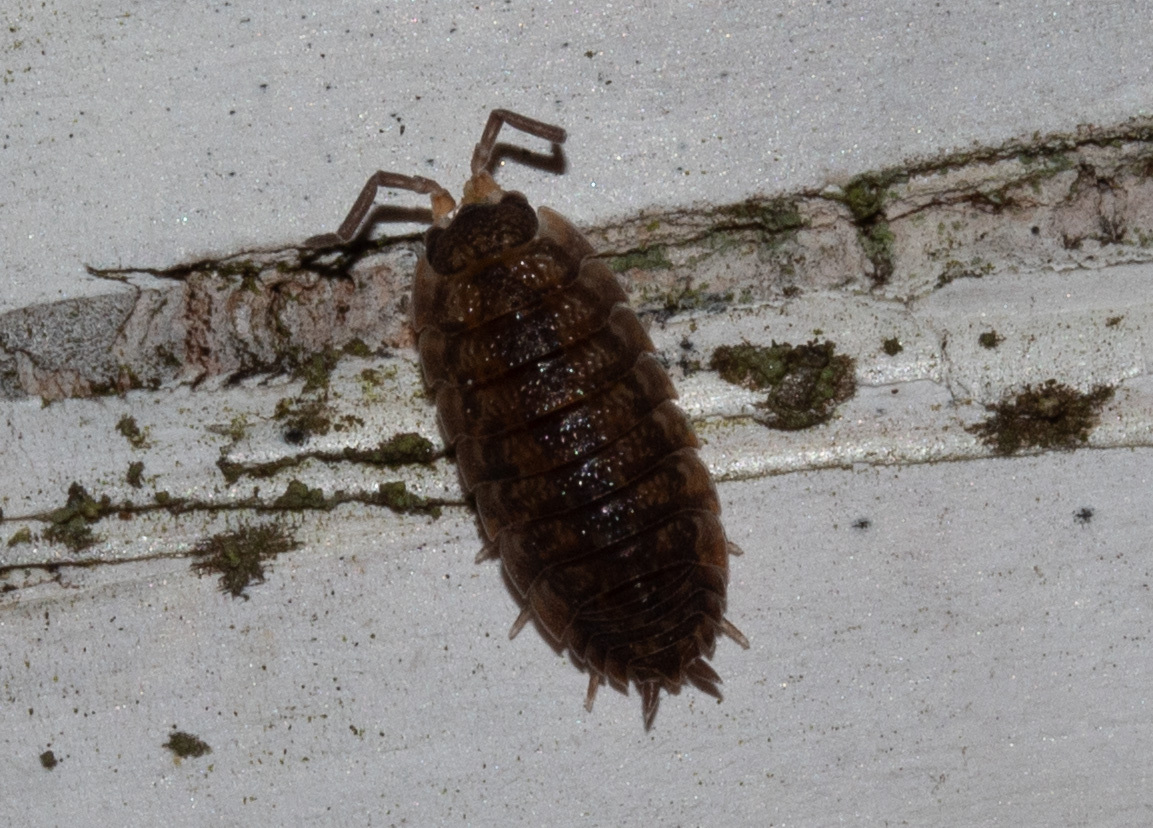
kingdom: Animalia
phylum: Arthropoda
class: Malacostraca
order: Isopoda
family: Porcellionidae
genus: Porcellio
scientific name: Porcellio scaber
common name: Common rough woodlouse
